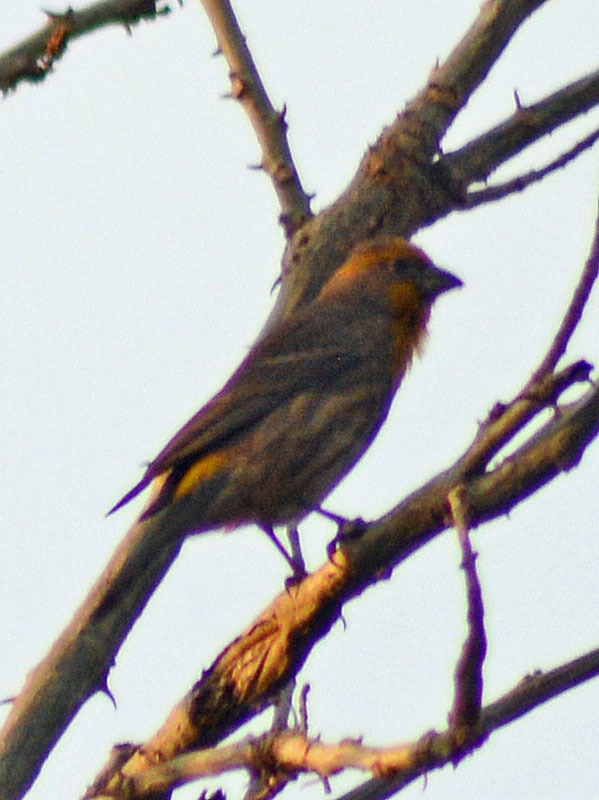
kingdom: Animalia
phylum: Chordata
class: Aves
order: Passeriformes
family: Fringillidae
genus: Haemorhous
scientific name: Haemorhous mexicanus
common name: House finch
